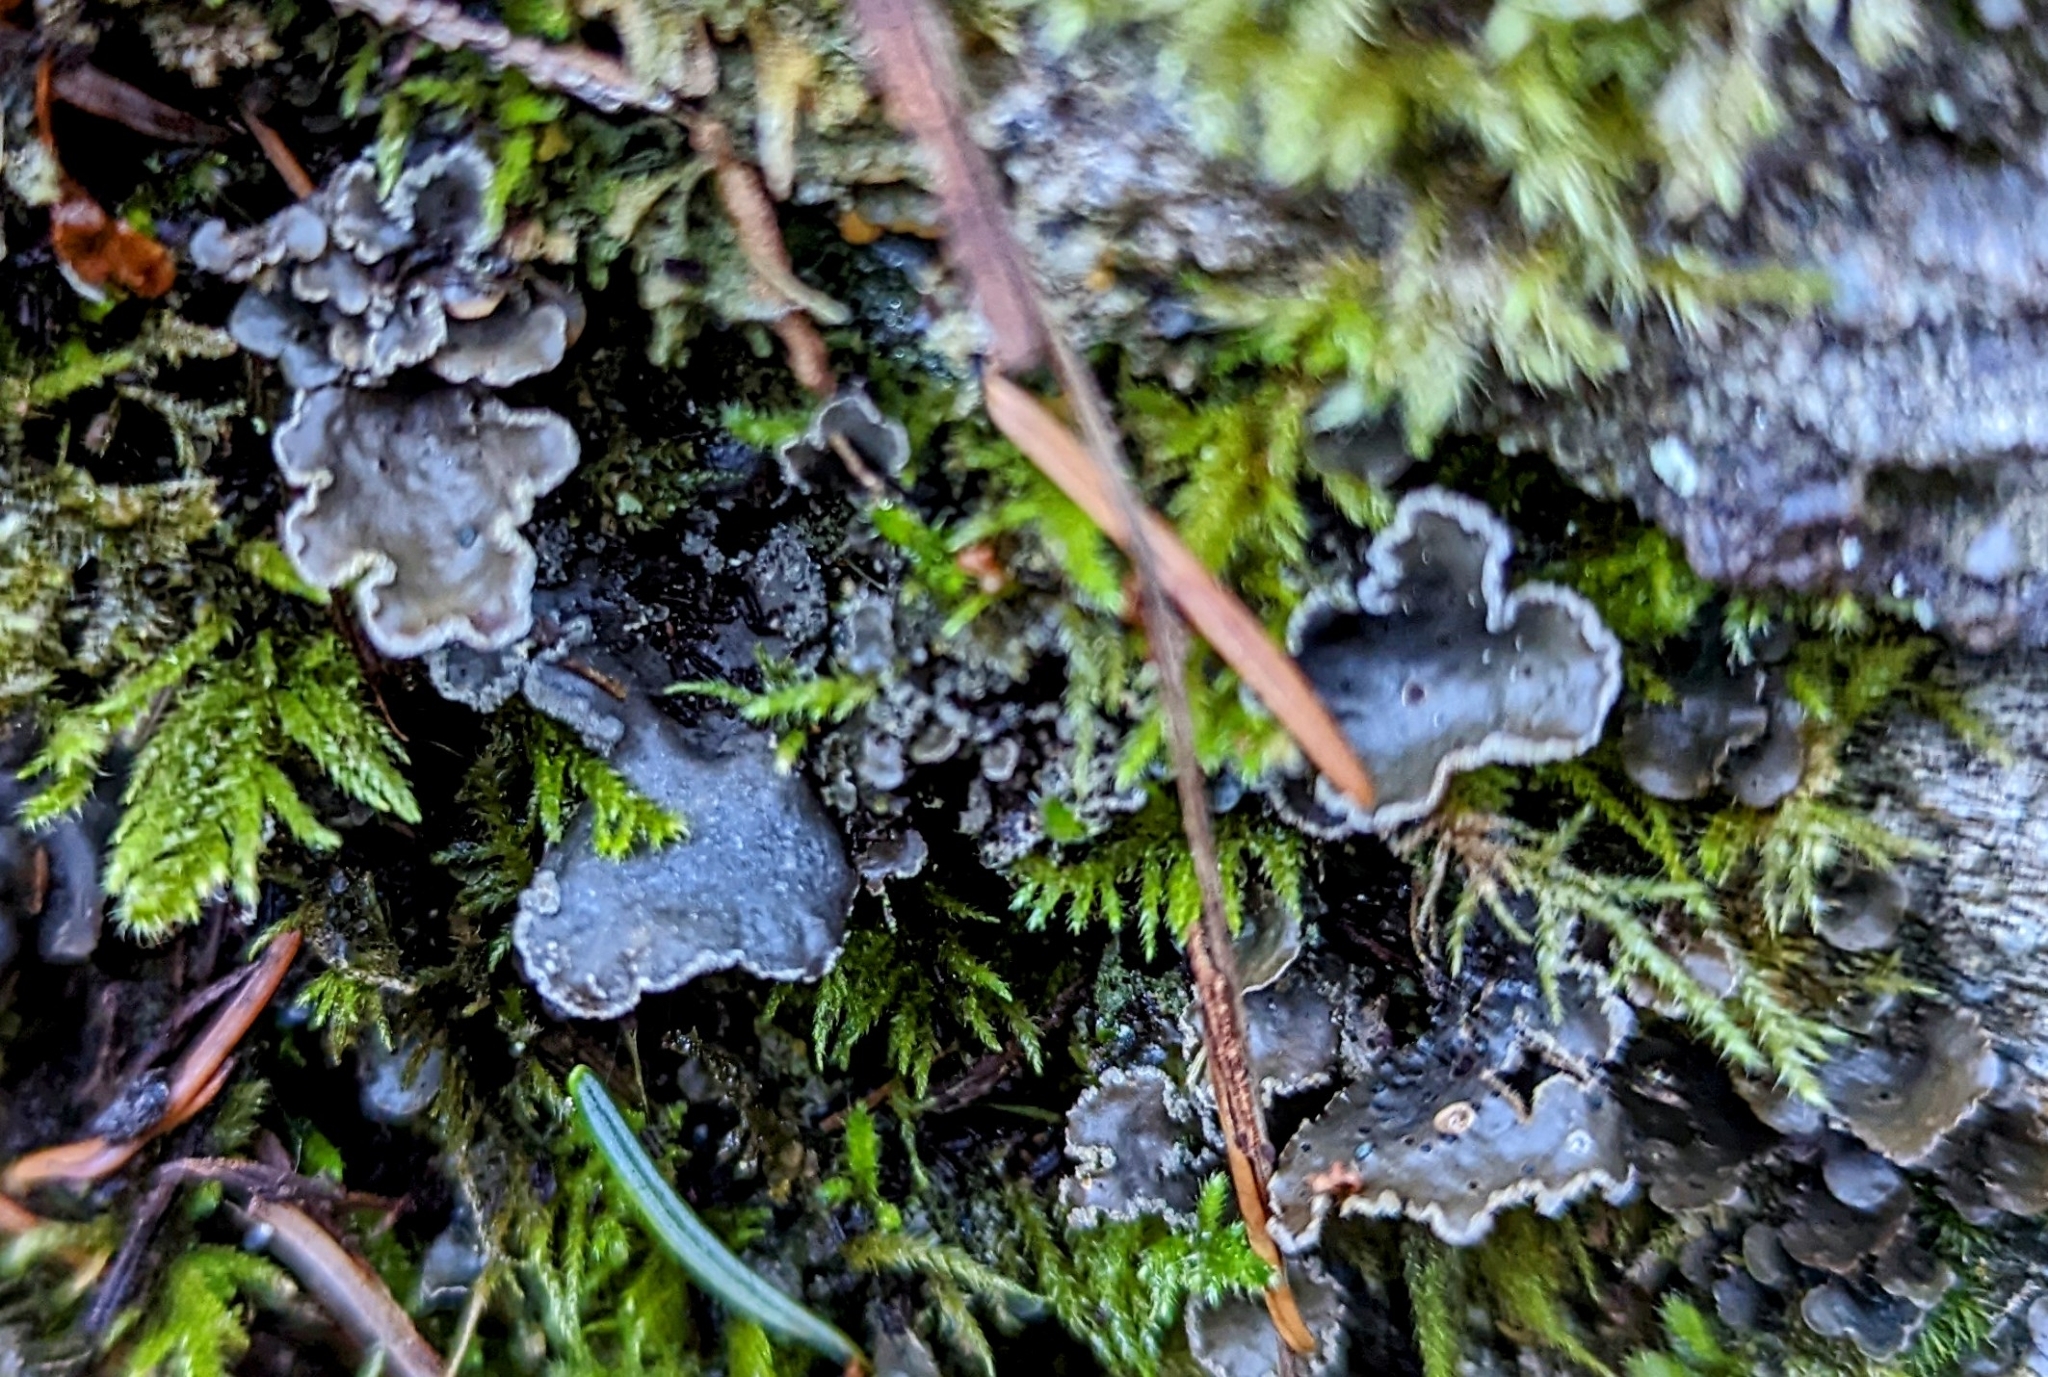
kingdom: Fungi
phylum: Ascomycota
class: Lecanoromycetes
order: Peltigerales
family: Lobariaceae
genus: Sticta
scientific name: Sticta limbata
